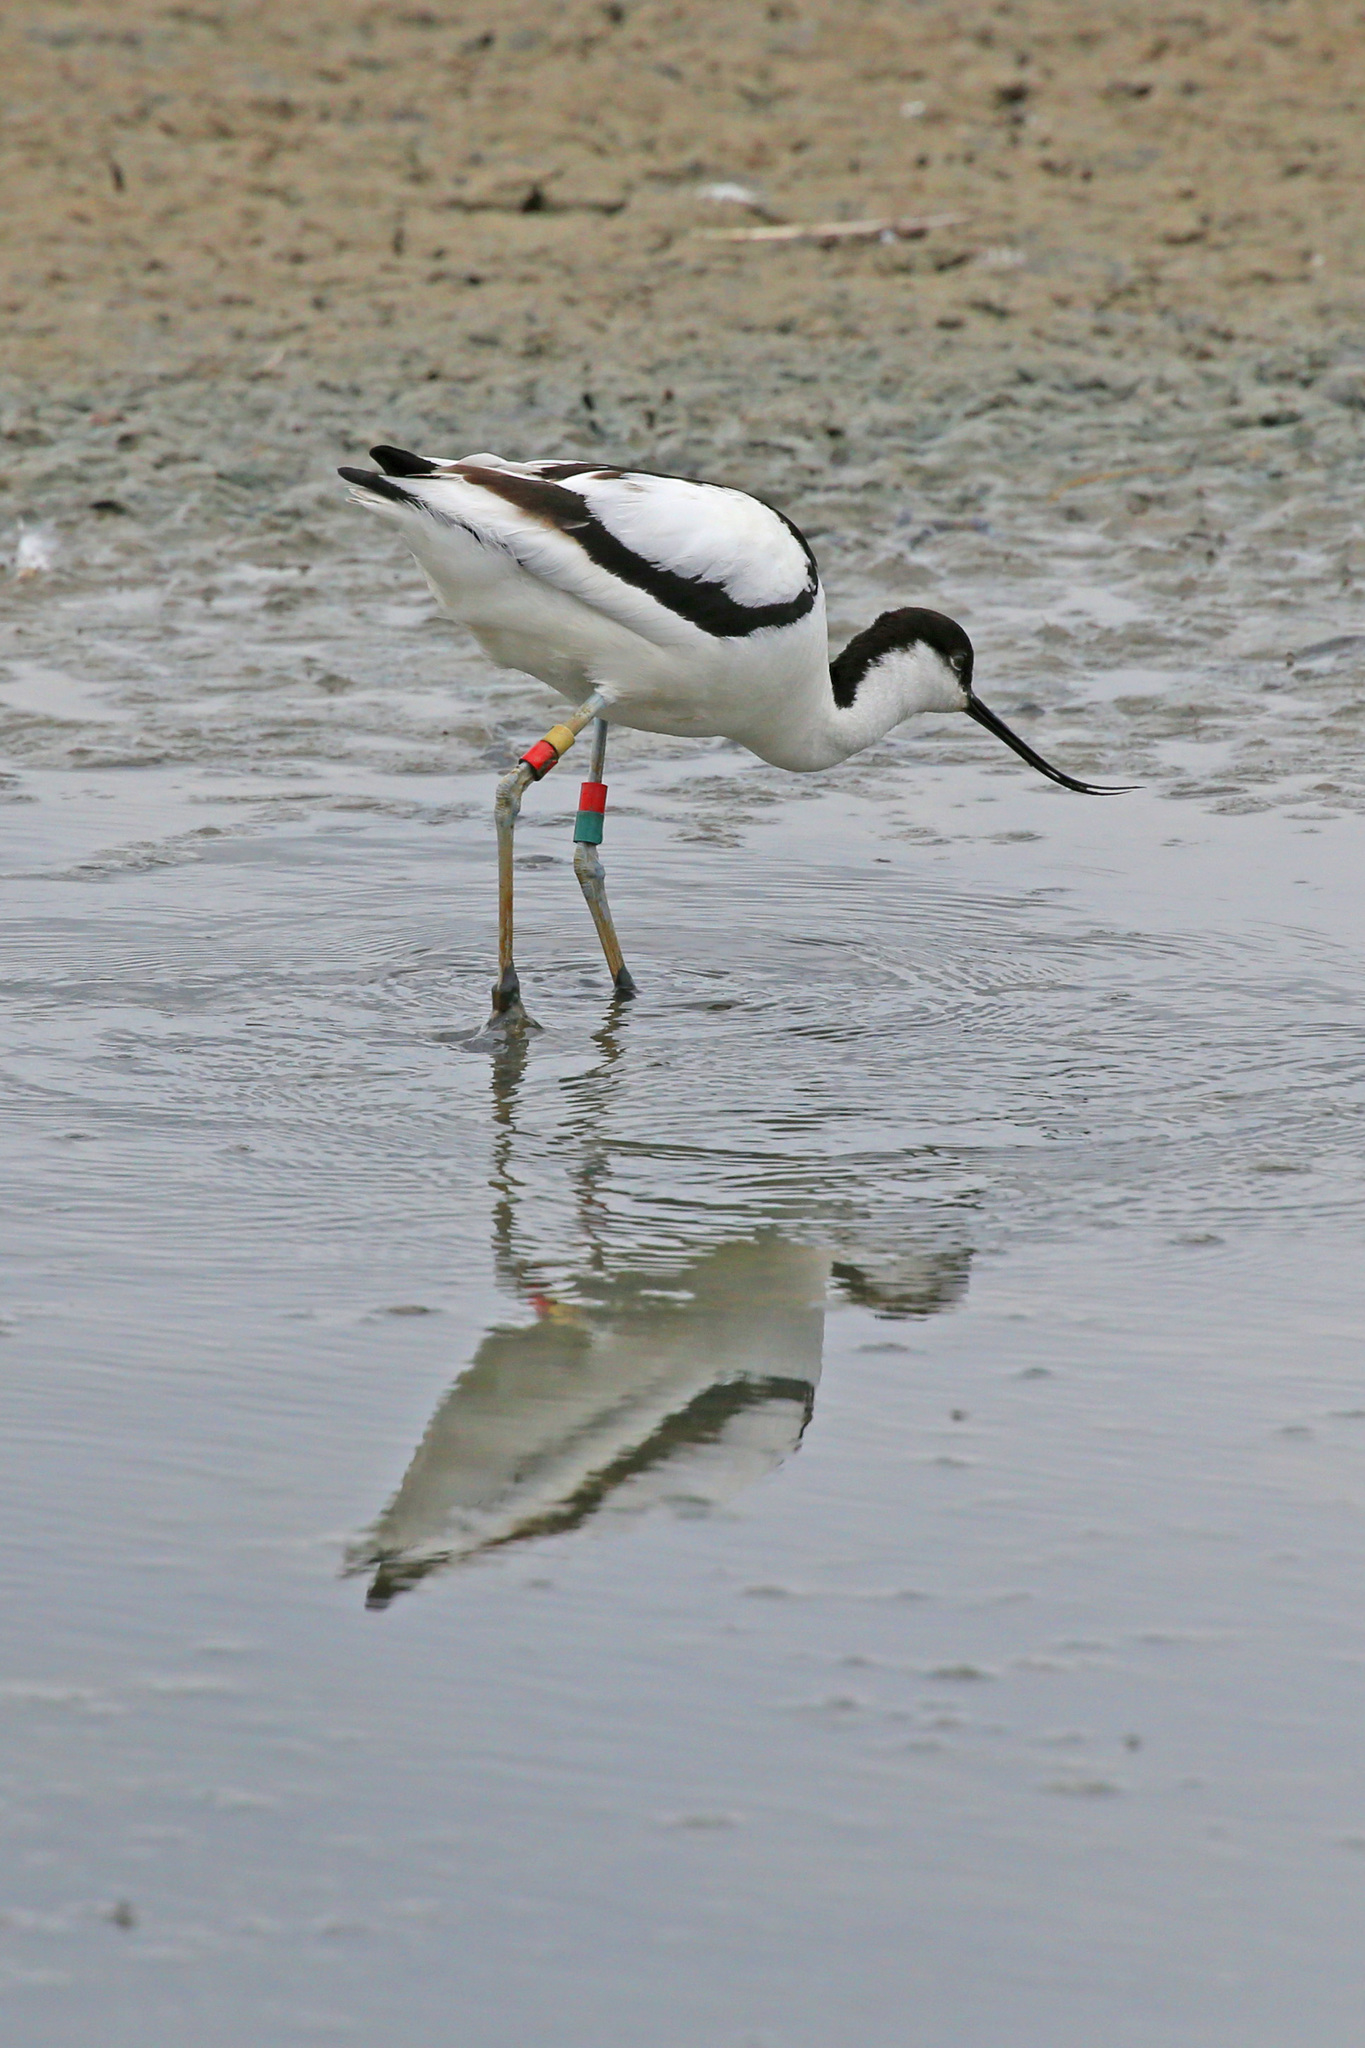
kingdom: Animalia
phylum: Chordata
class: Aves
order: Charadriiformes
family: Recurvirostridae
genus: Recurvirostra
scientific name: Recurvirostra avosetta
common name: Pied avocet
